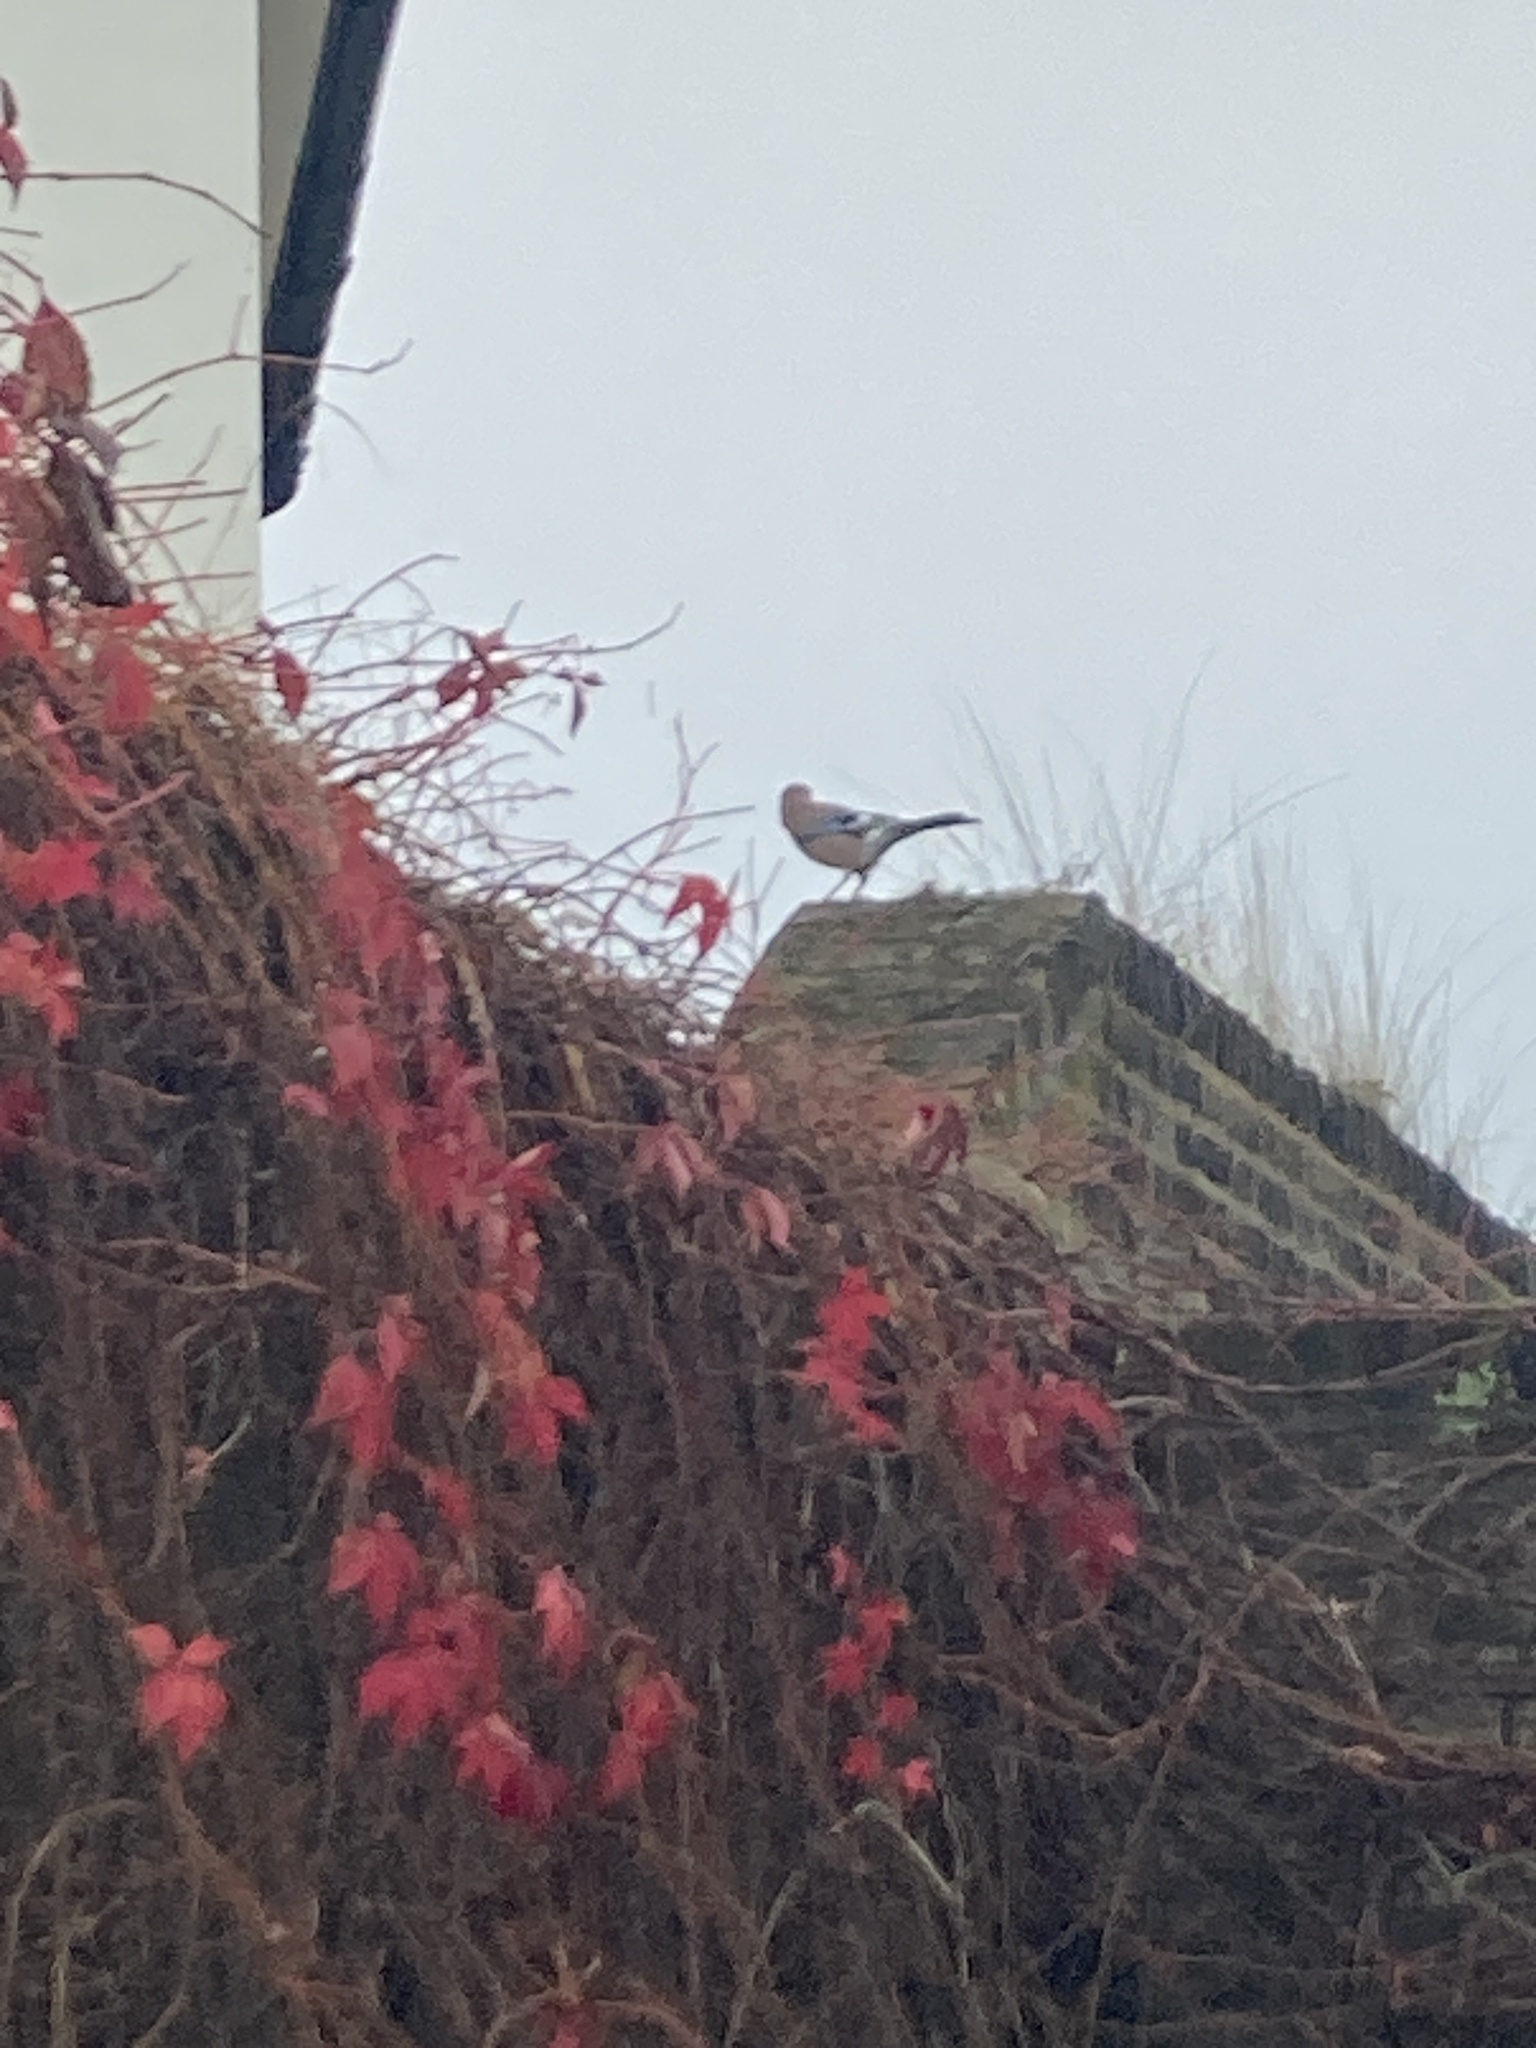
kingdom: Animalia
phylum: Chordata
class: Aves
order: Passeriformes
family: Corvidae
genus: Garrulus
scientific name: Garrulus glandarius
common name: Eurasian jay
